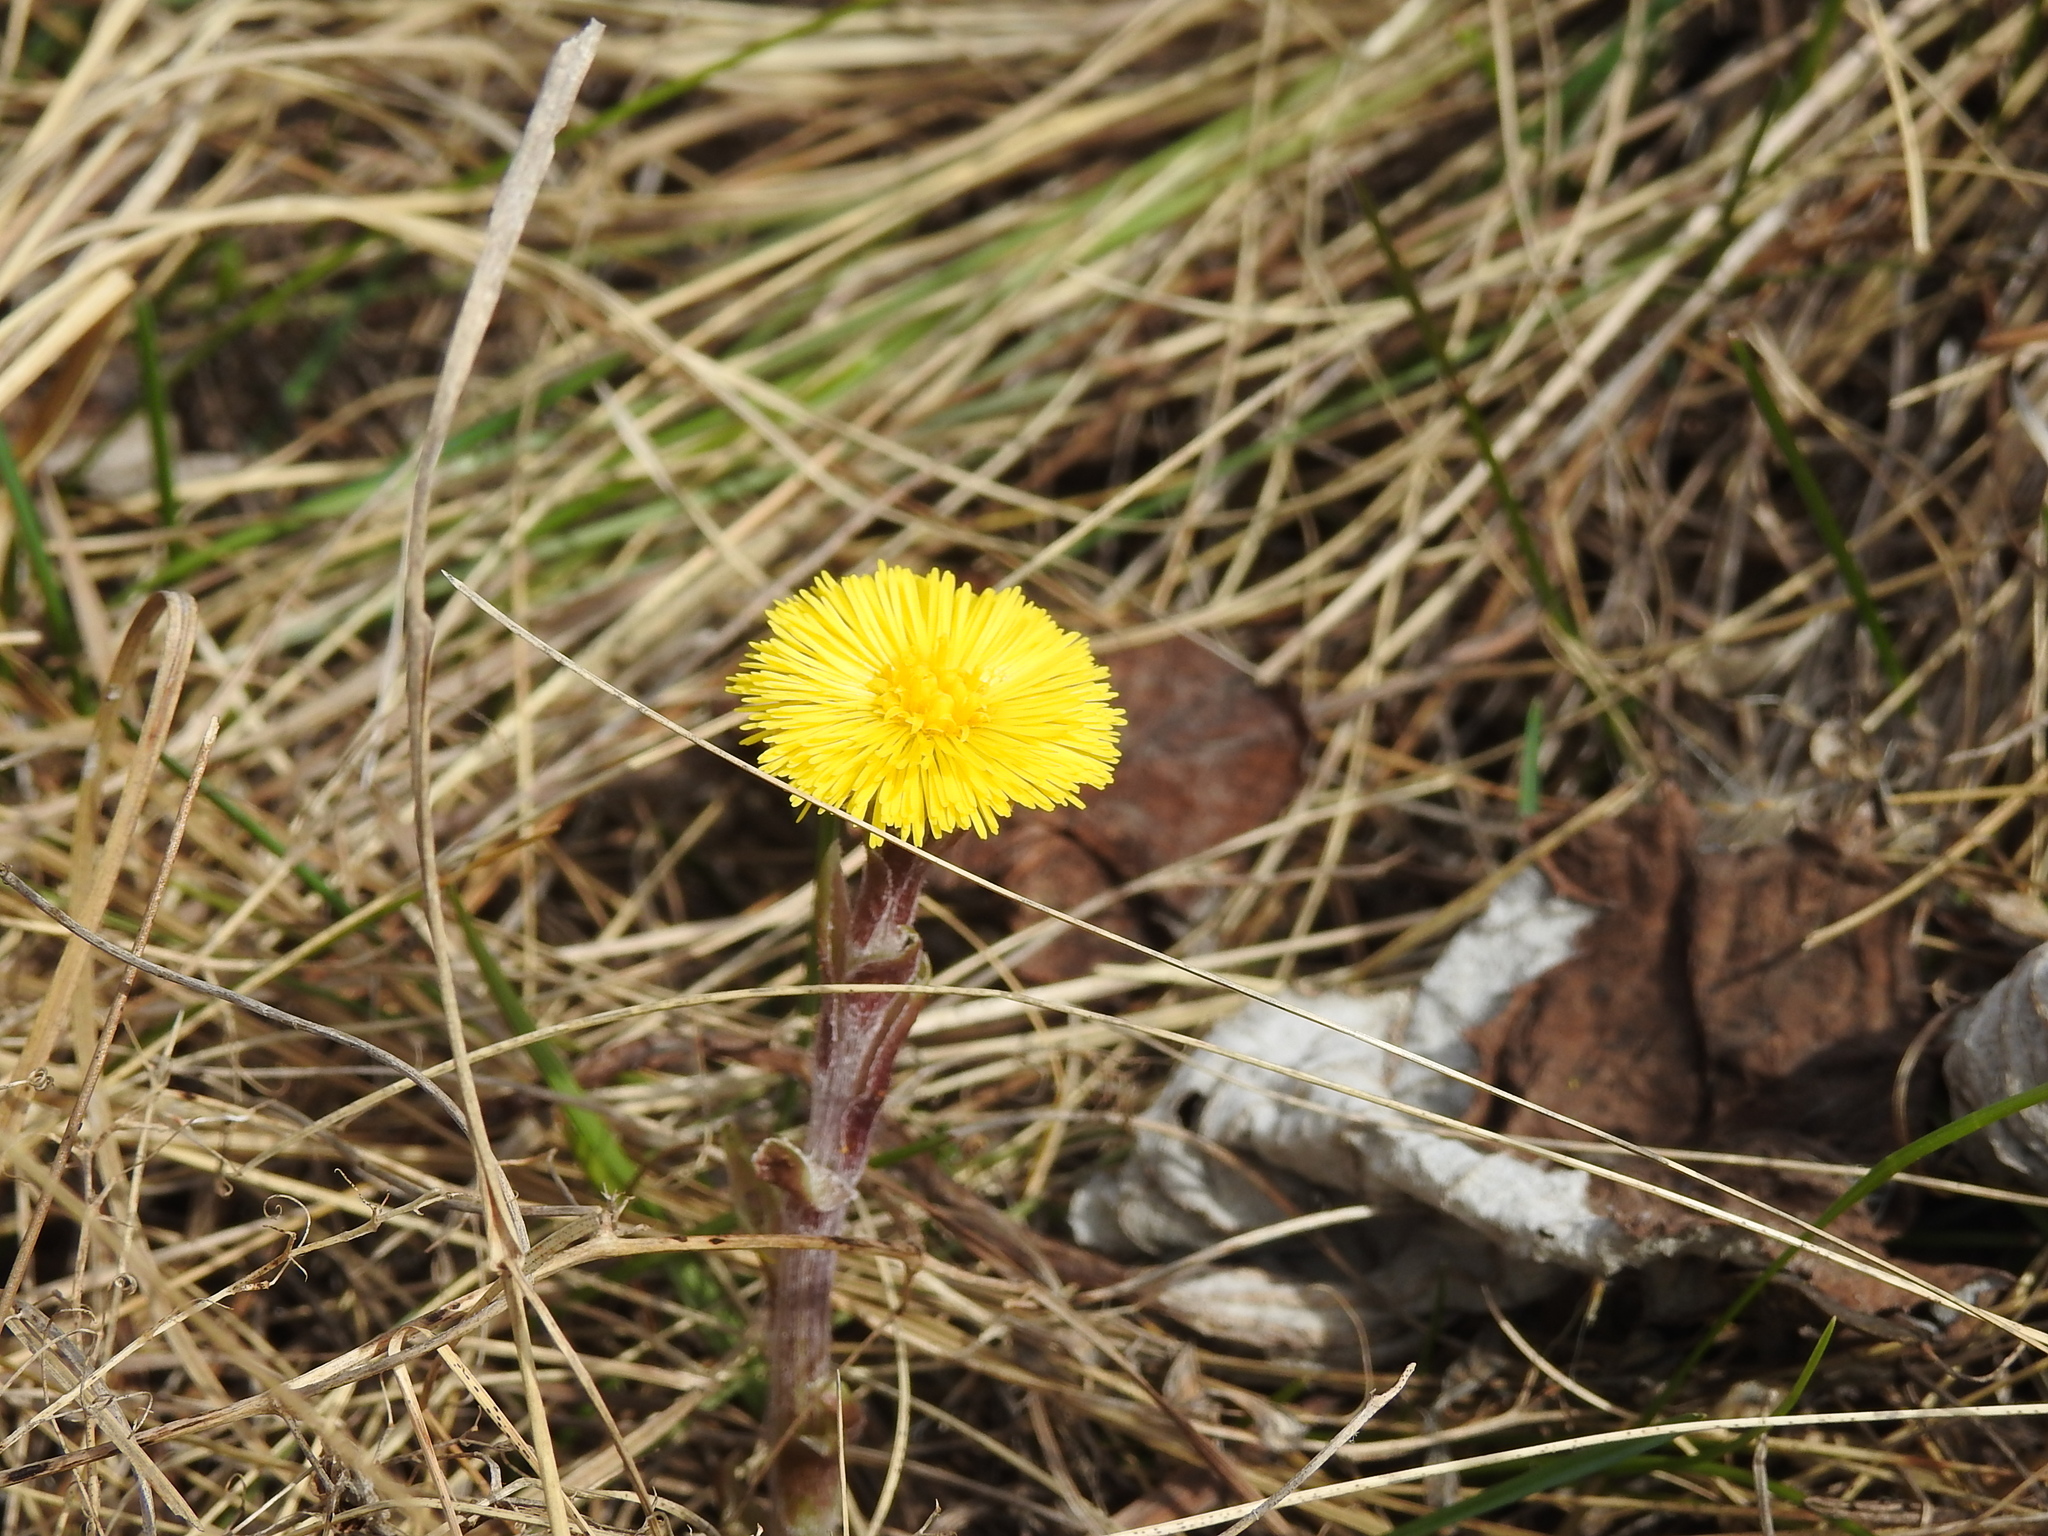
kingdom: Plantae
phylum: Tracheophyta
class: Magnoliopsida
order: Asterales
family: Asteraceae
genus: Tussilago
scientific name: Tussilago farfara
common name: Coltsfoot
